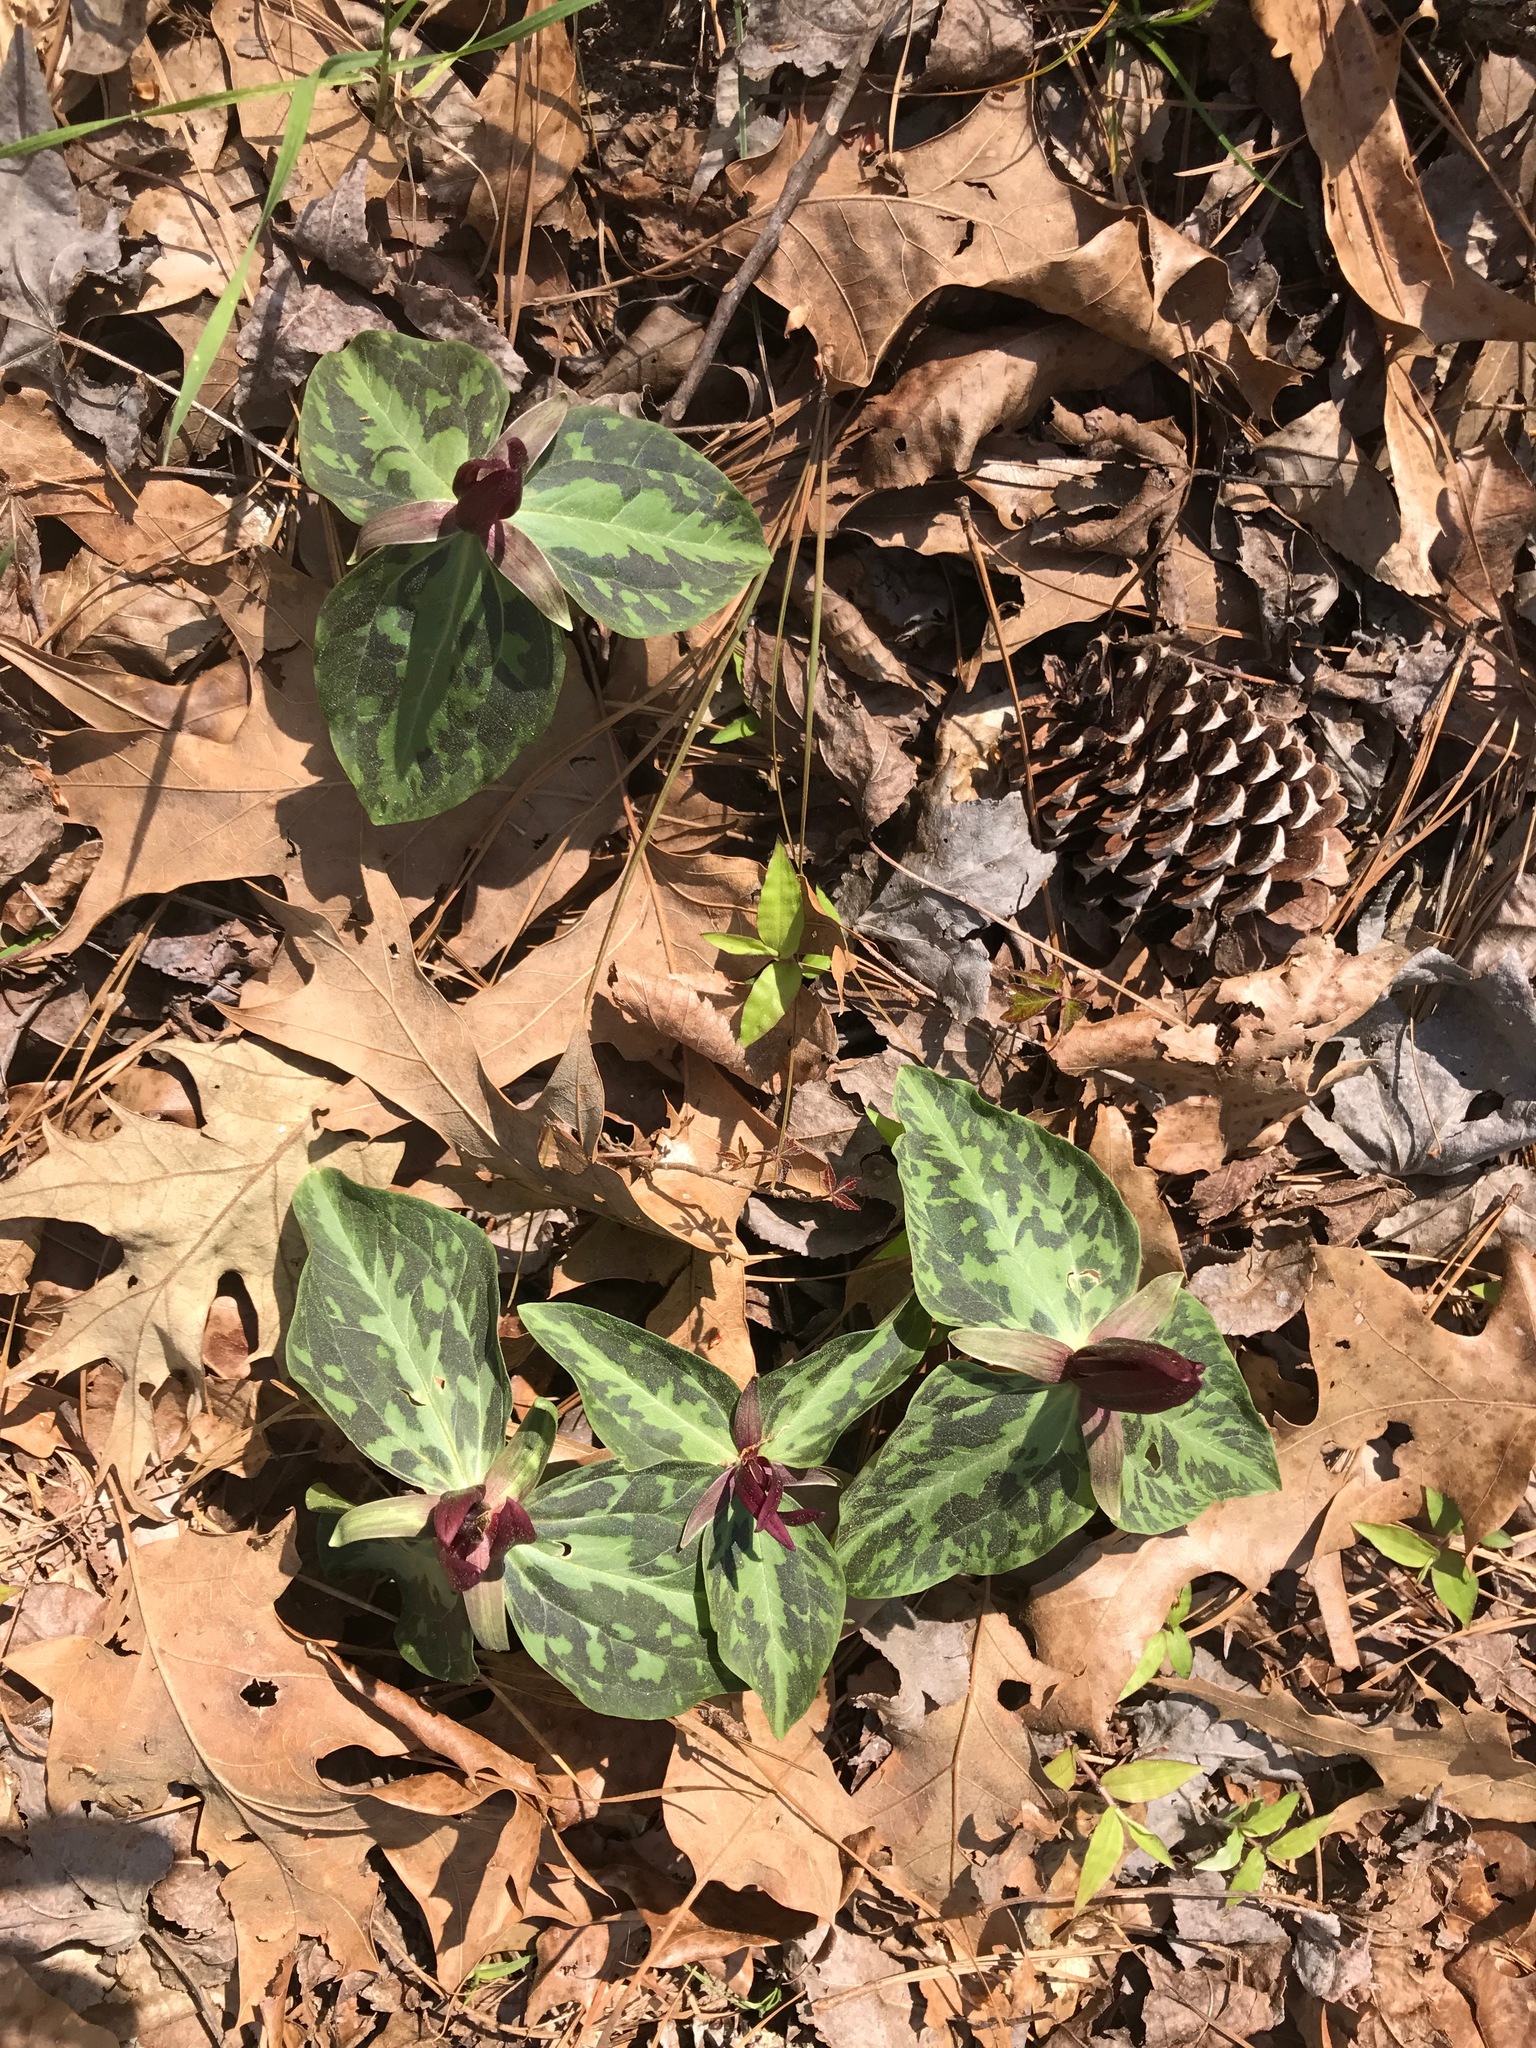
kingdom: Plantae
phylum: Tracheophyta
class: Liliopsida
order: Liliales
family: Melanthiaceae
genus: Trillium
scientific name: Trillium foetidissimum
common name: Mississippi river trillium
